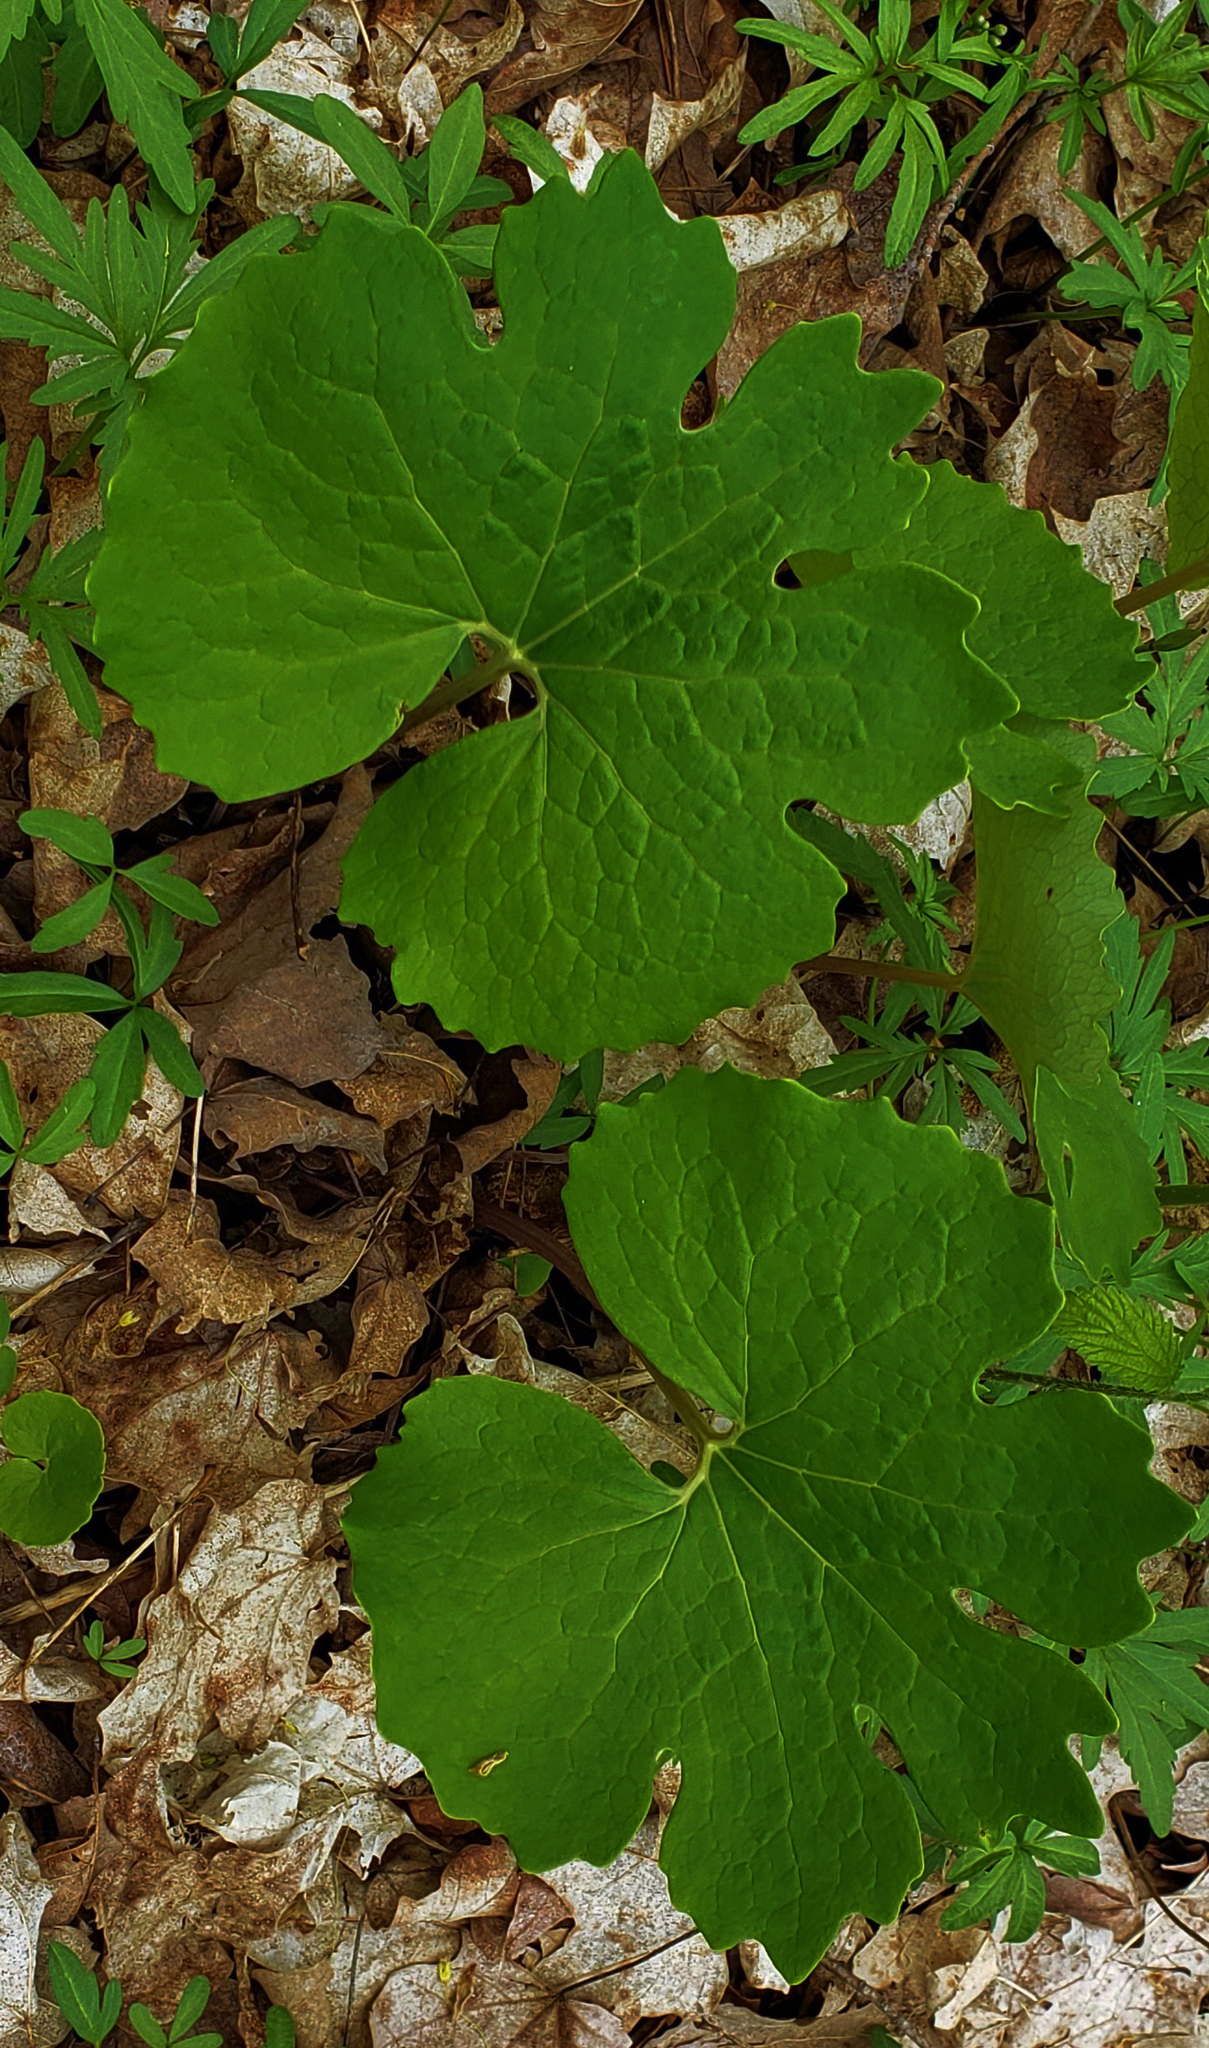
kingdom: Plantae
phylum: Tracheophyta
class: Magnoliopsida
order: Ranunculales
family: Papaveraceae
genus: Sanguinaria
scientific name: Sanguinaria canadensis
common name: Bloodroot
